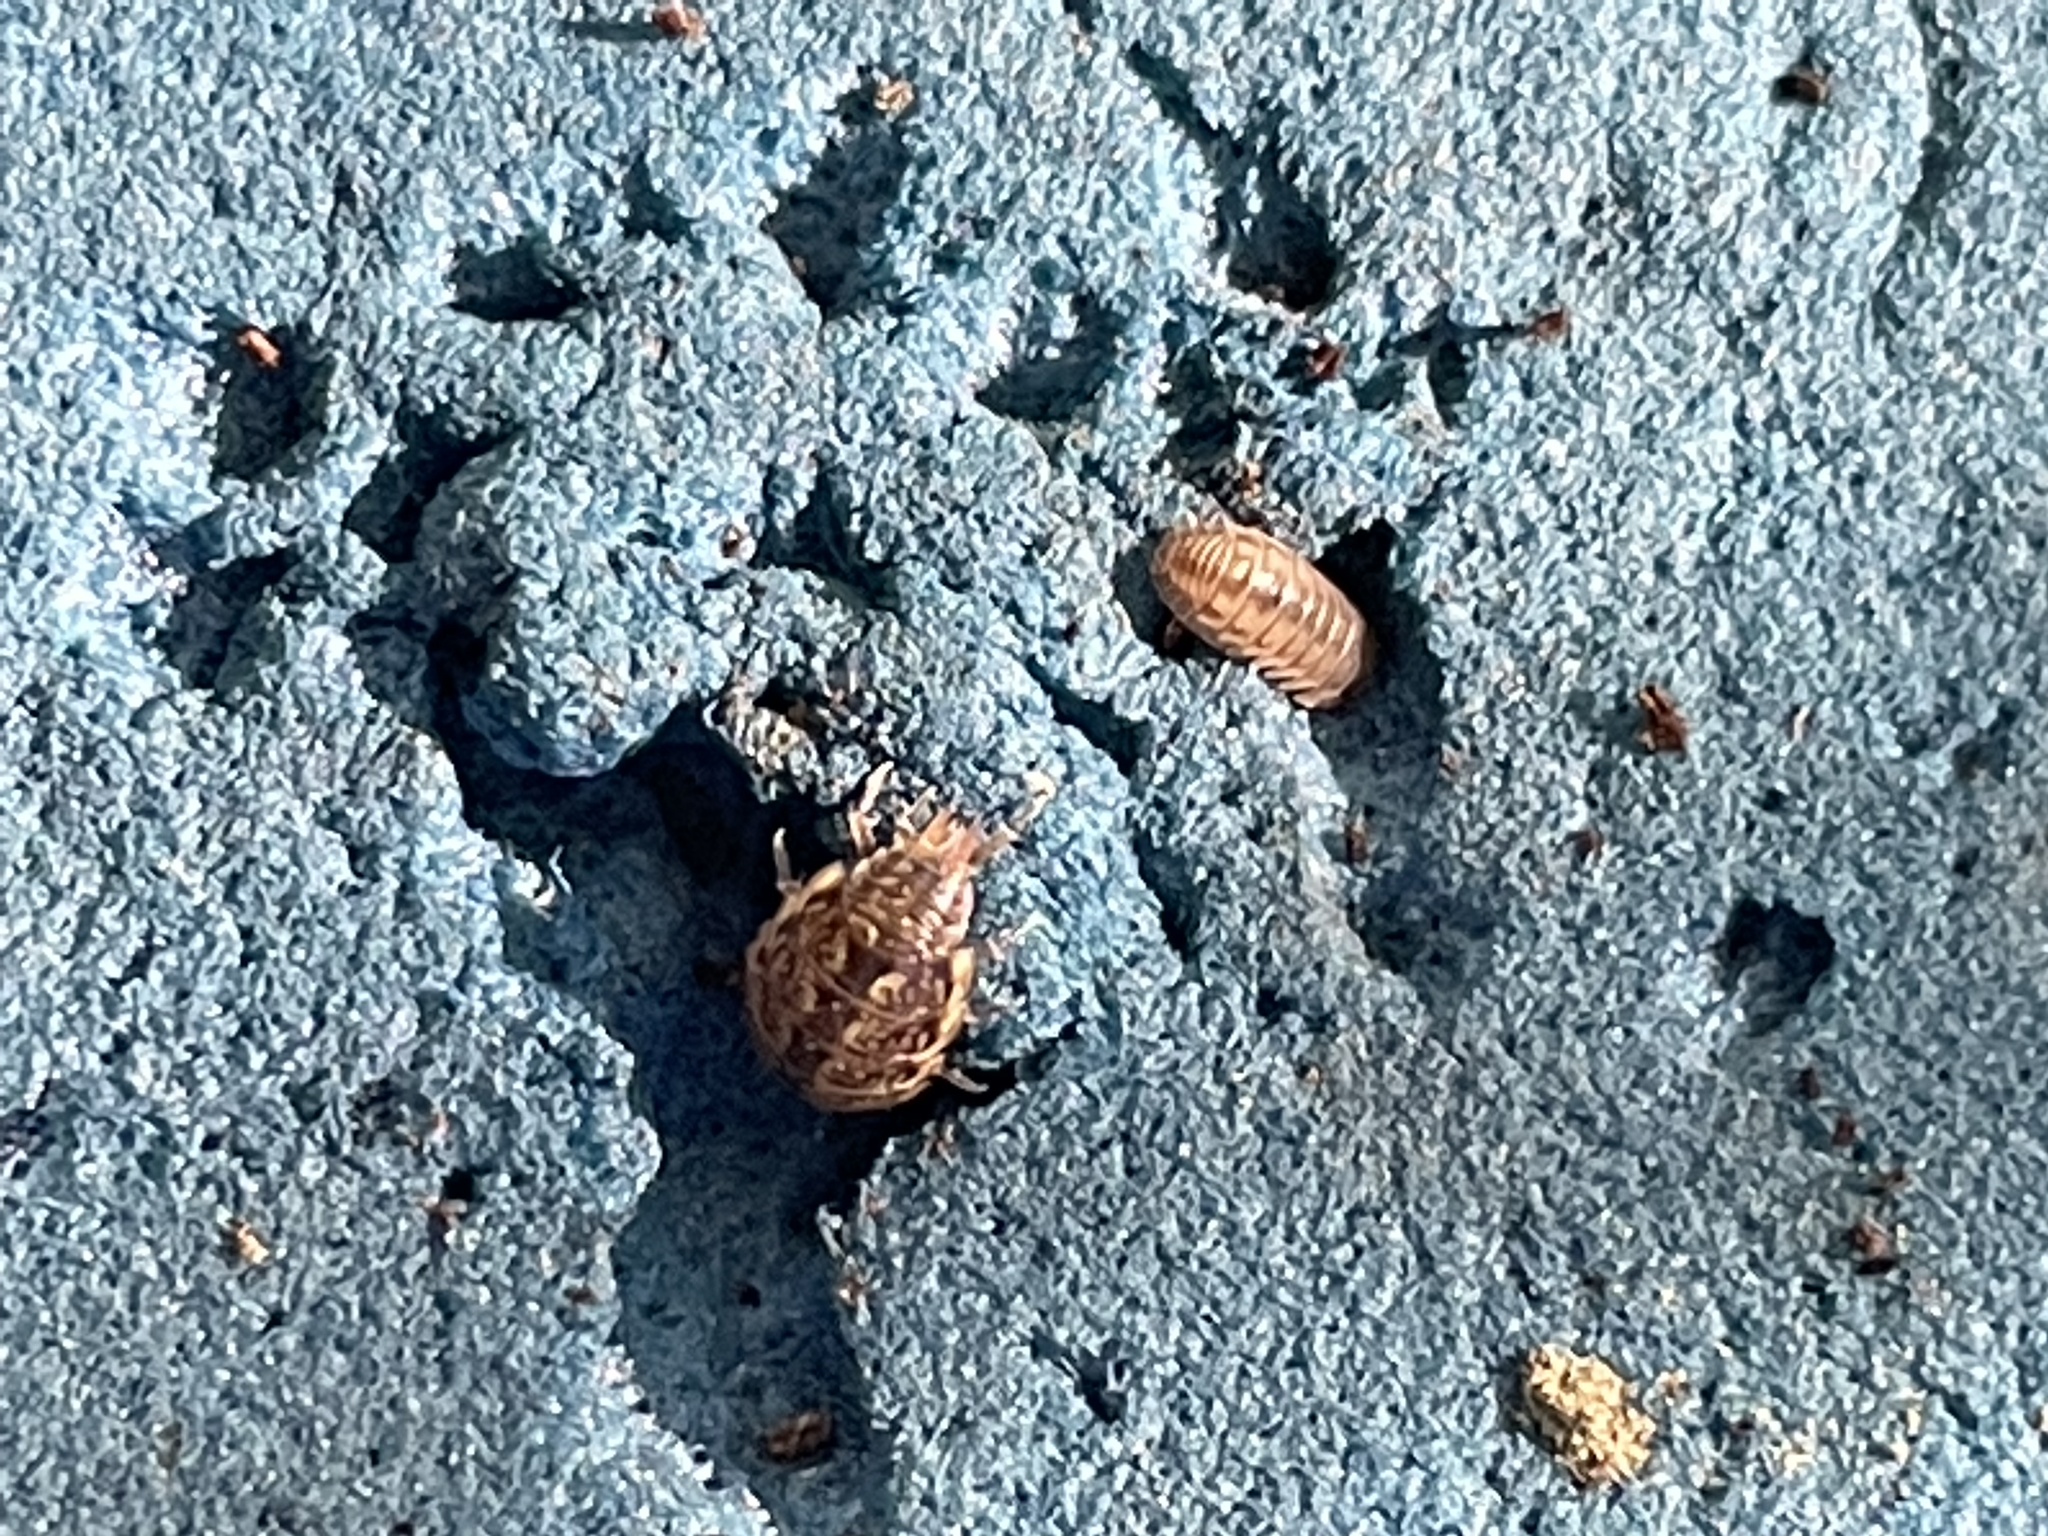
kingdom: Animalia
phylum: Arthropoda
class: Malacostraca
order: Isopoda
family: Philosciidae
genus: Philoscia
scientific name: Philoscia muscorum
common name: Common striped woodlouse
